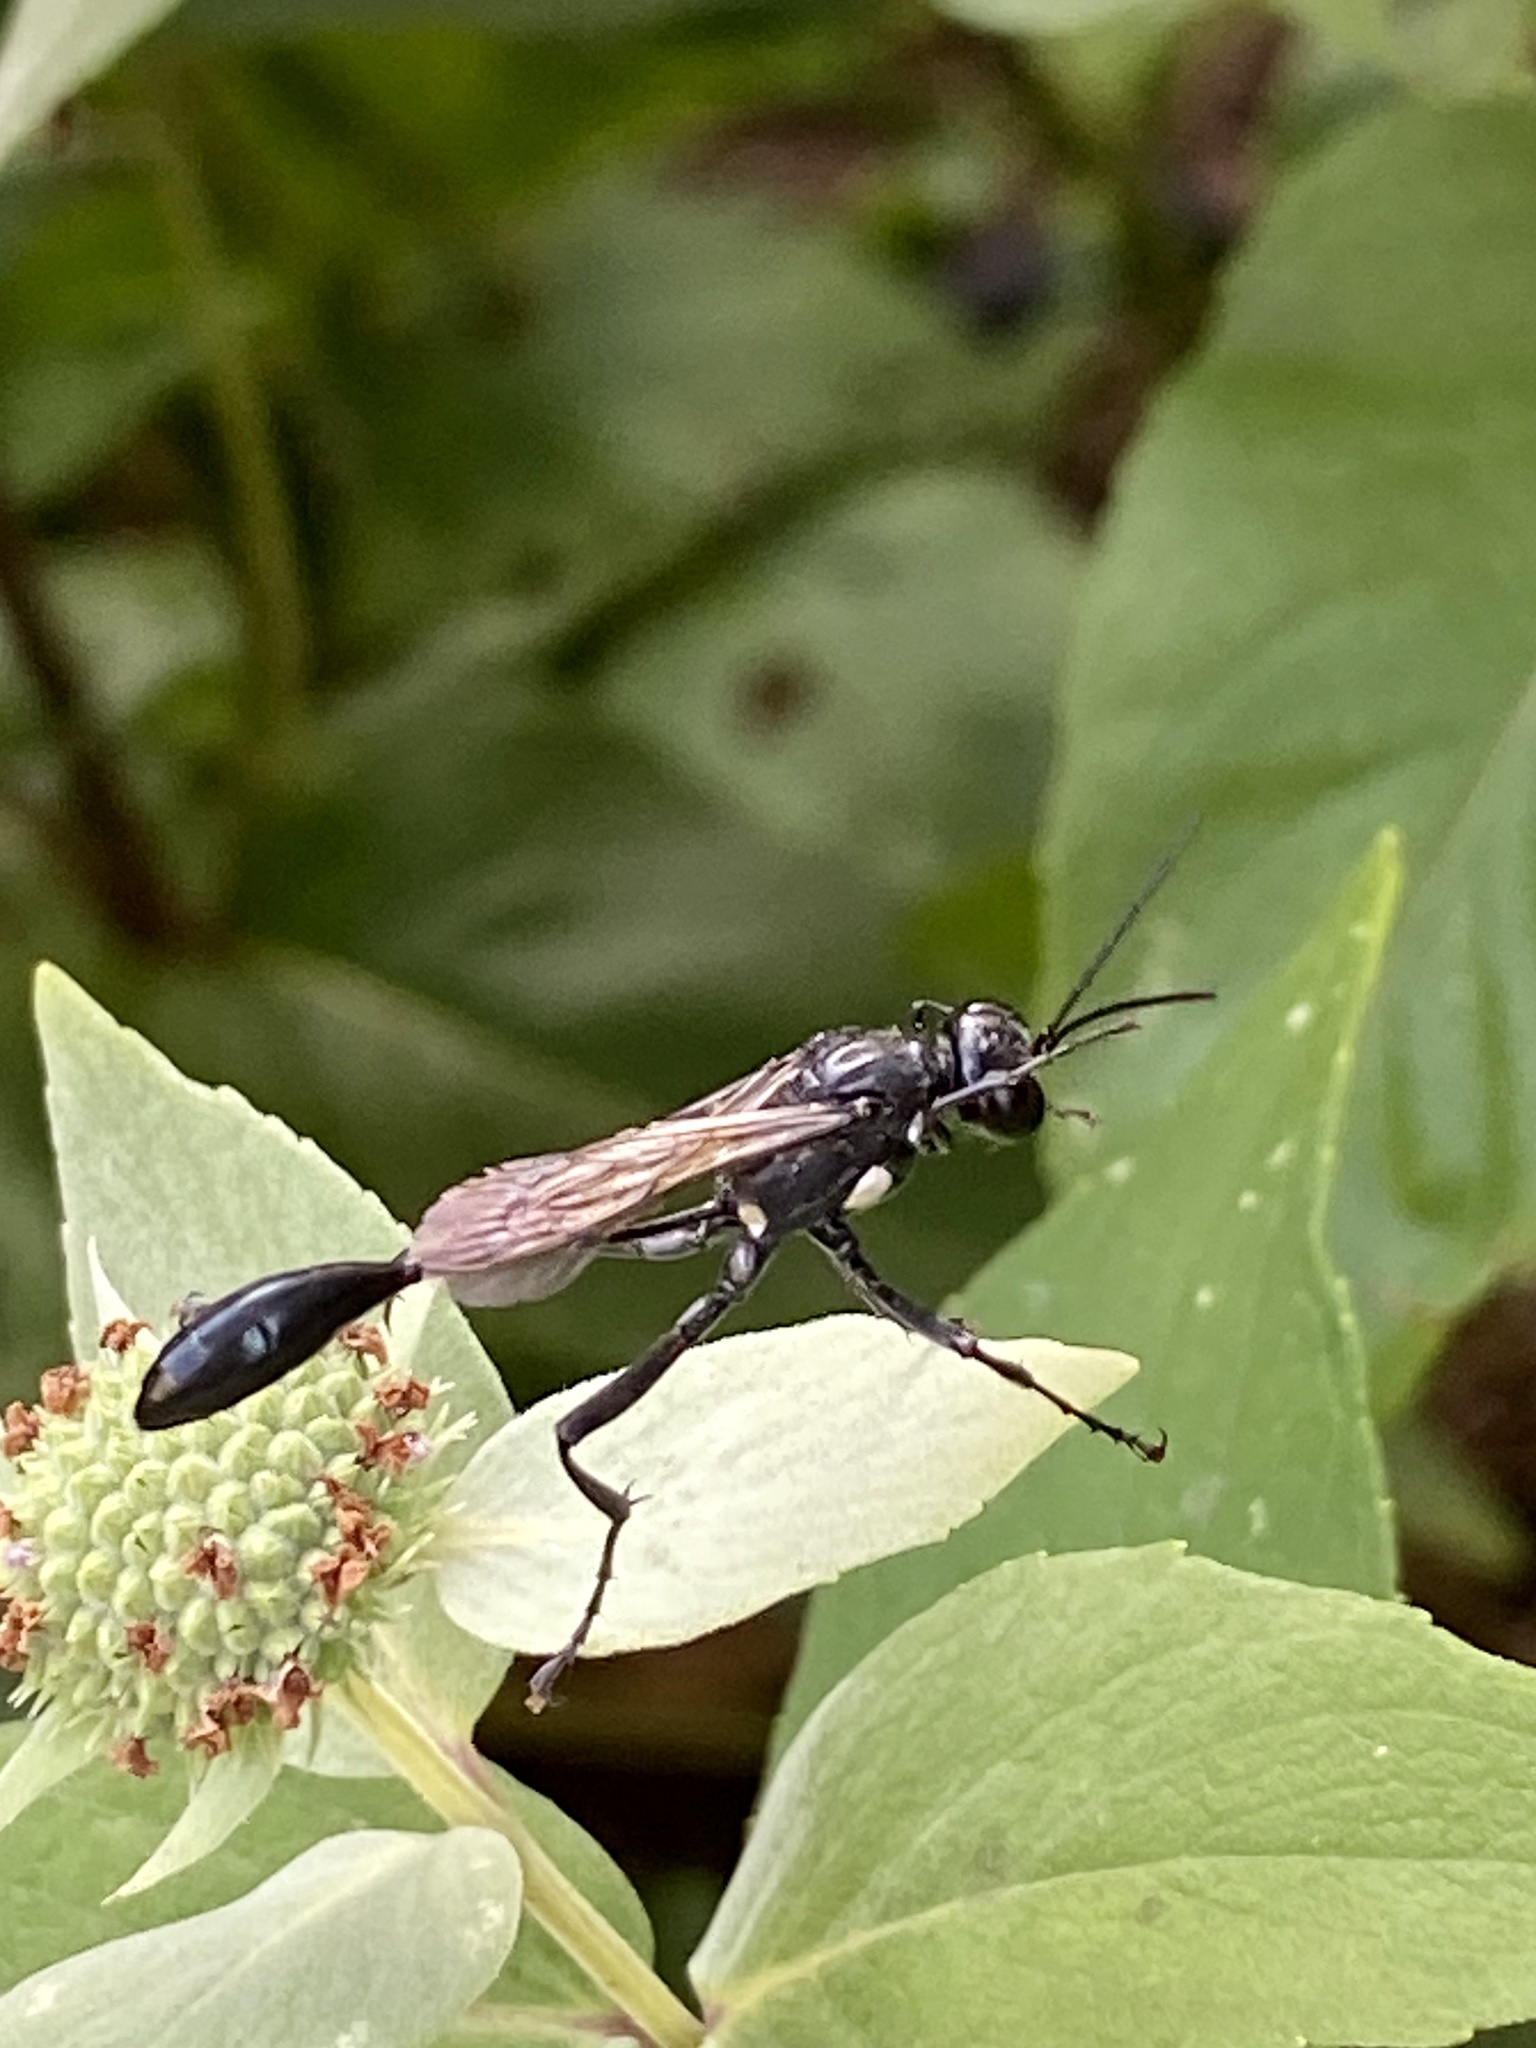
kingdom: Animalia
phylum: Arthropoda
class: Insecta
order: Hymenoptera
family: Sphecidae
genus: Eremnophila
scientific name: Eremnophila aureonotata
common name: Gold-marked thread-waisted wasp
